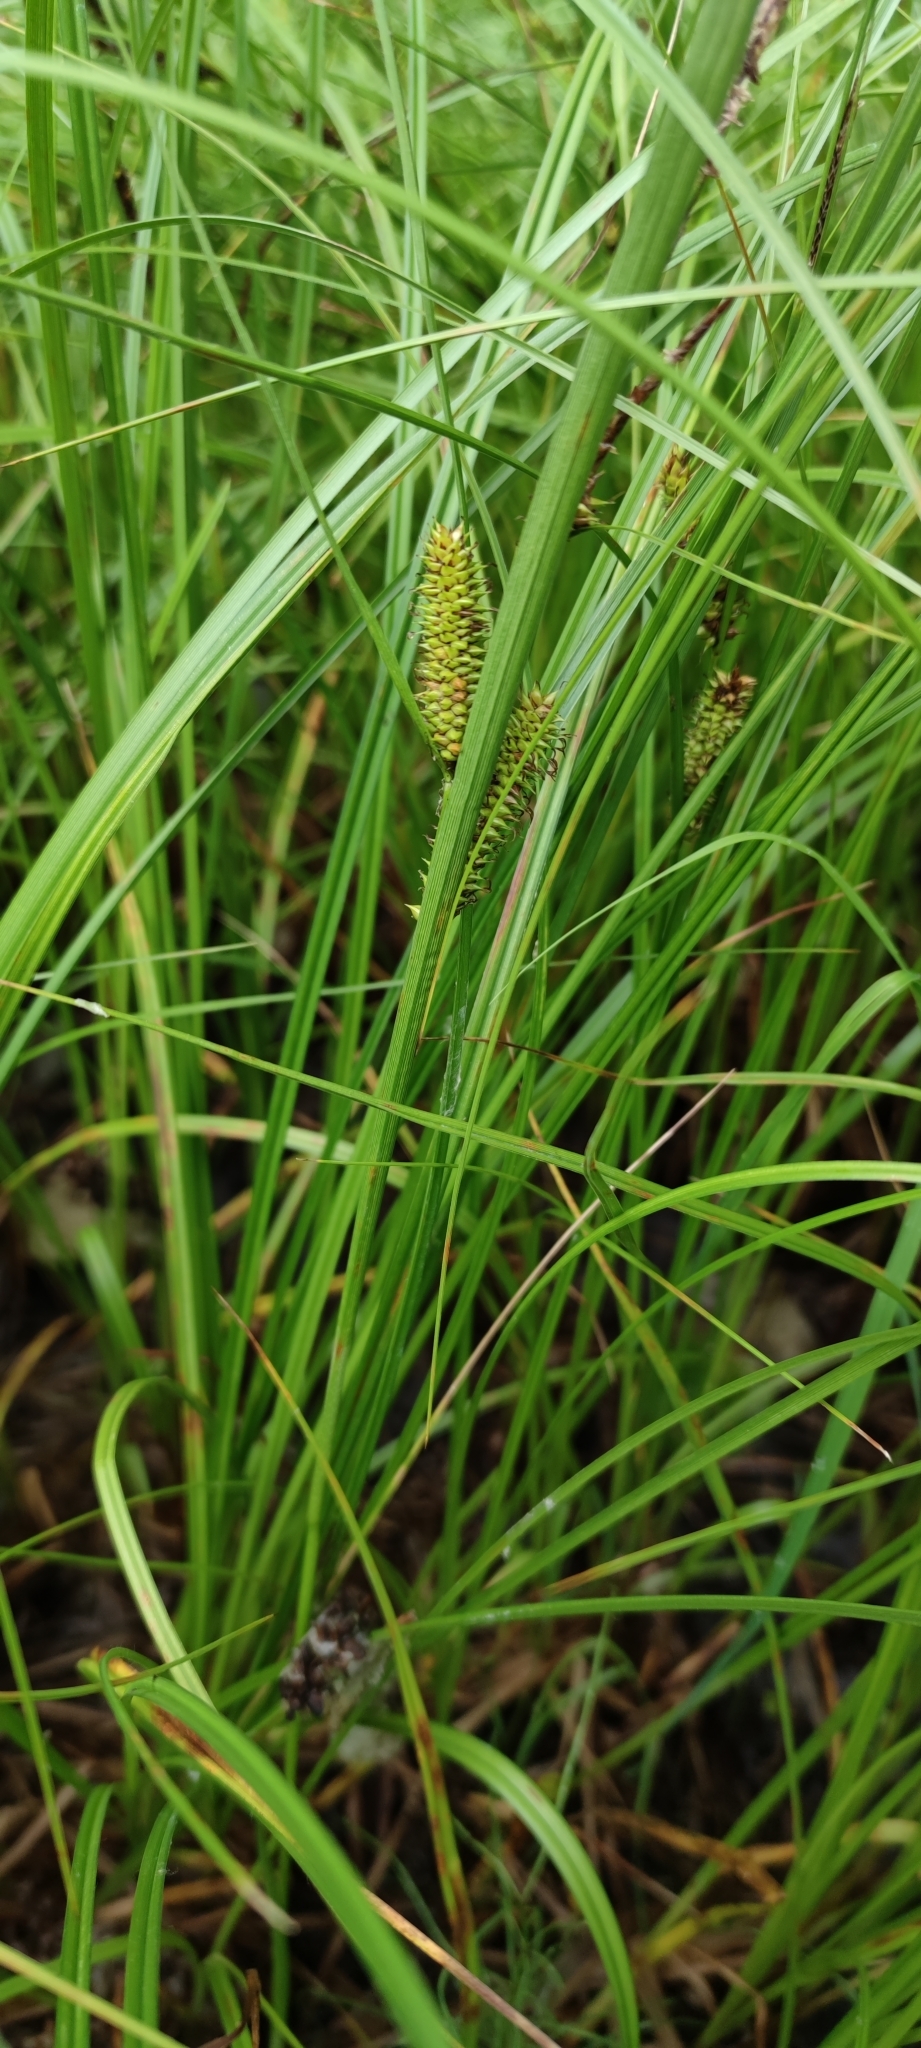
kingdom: Plantae
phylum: Tracheophyta
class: Liliopsida
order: Poales
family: Cyperaceae
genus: Carex
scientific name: Carex utriculata
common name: Beaked sedge
